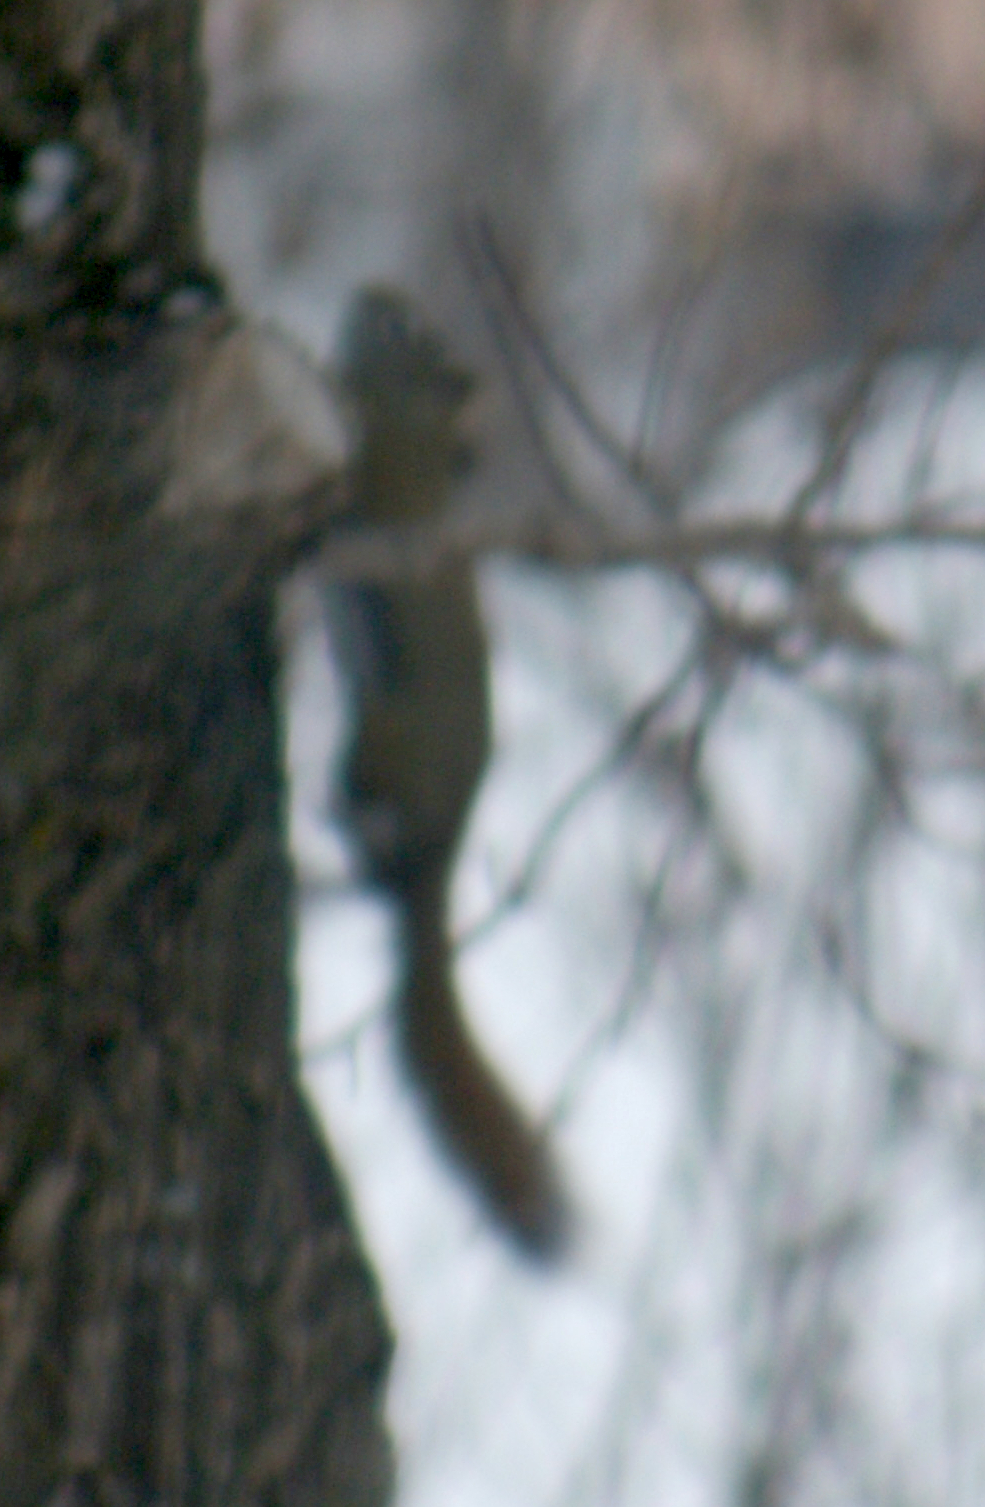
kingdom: Animalia
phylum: Chordata
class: Mammalia
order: Rodentia
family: Sciuridae
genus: Tamiasciurus
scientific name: Tamiasciurus hudsonicus
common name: Red squirrel
